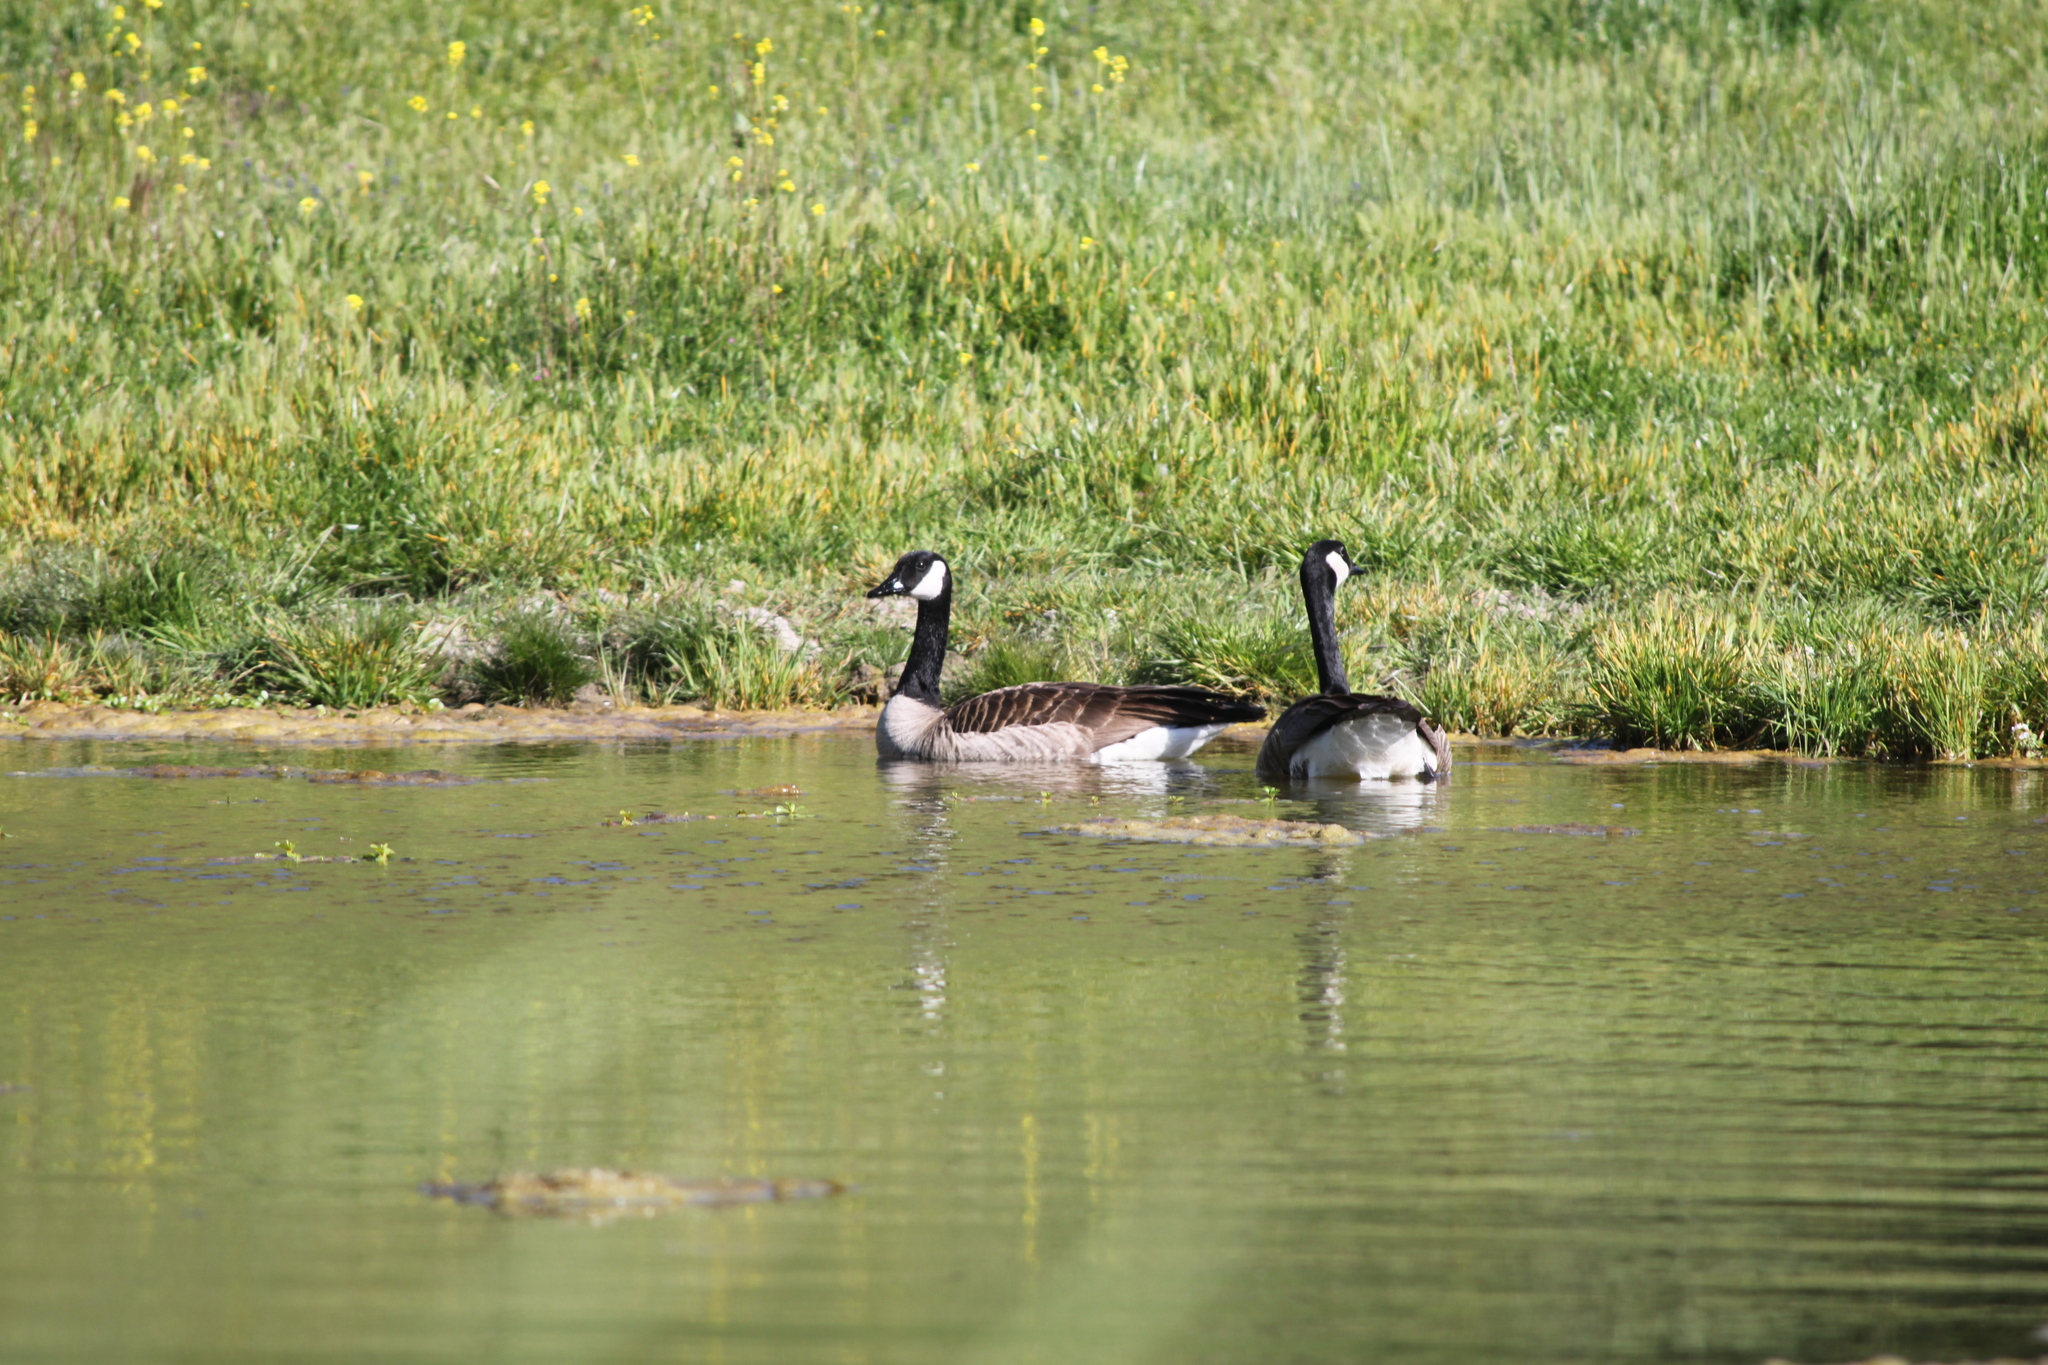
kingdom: Animalia
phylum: Chordata
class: Aves
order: Anseriformes
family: Anatidae
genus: Branta
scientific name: Branta canadensis
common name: Canada goose
